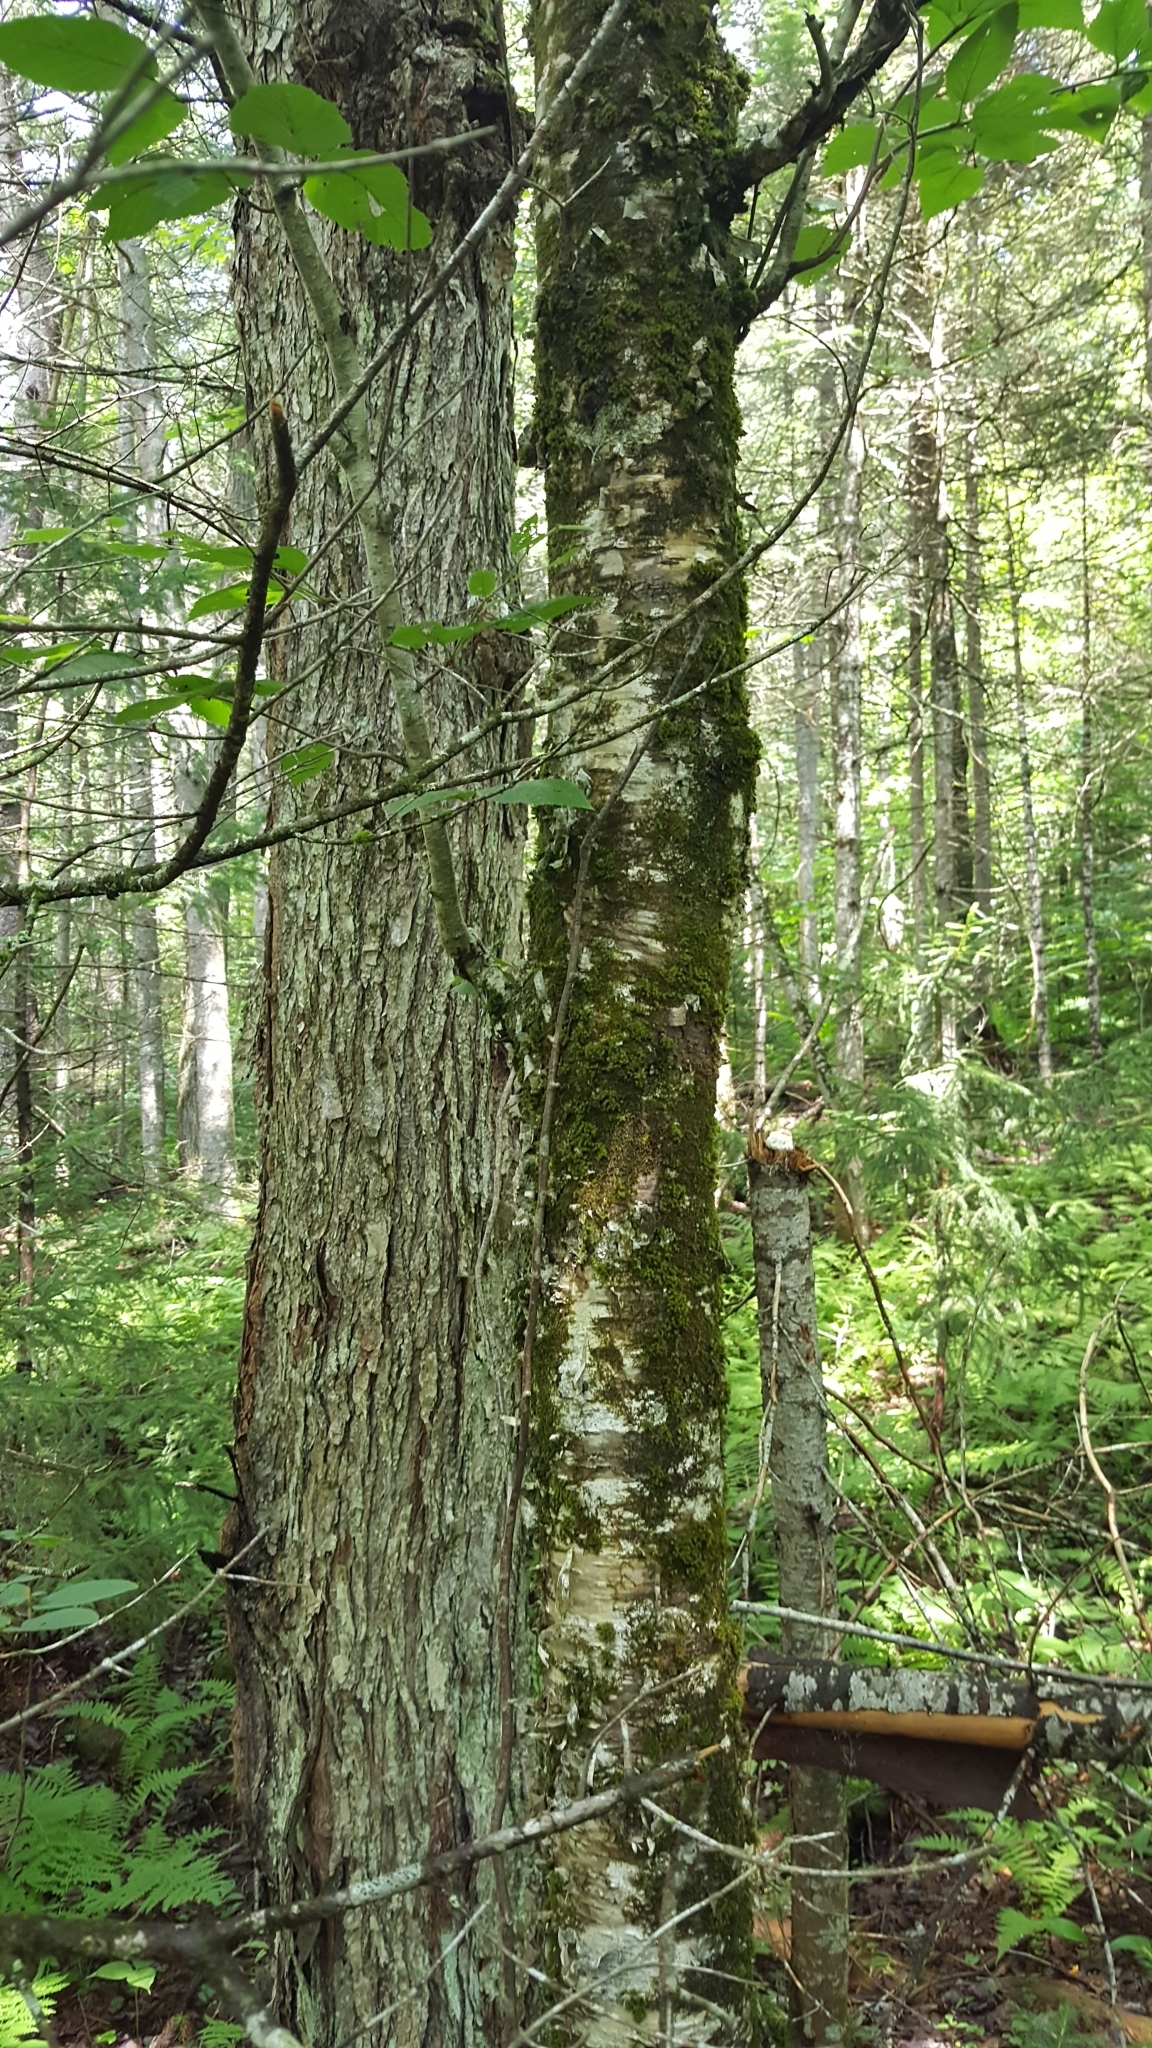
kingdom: Plantae
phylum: Tracheophyta
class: Magnoliopsida
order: Fagales
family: Betulaceae
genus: Betula
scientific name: Betula alleghaniensis
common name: Yellow birch
